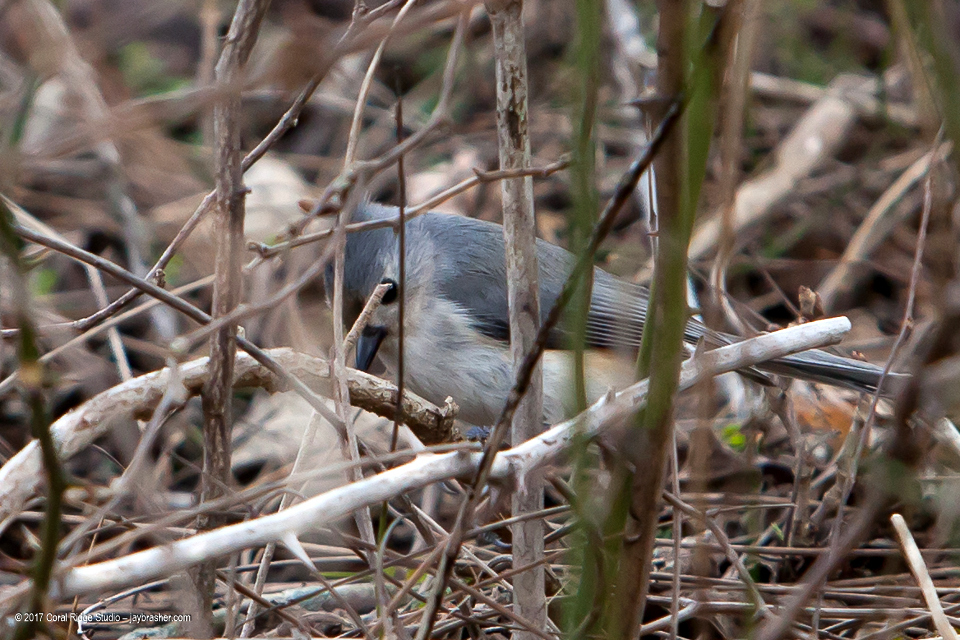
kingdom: Animalia
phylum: Chordata
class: Aves
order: Passeriformes
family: Paridae
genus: Baeolophus
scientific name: Baeolophus bicolor
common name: Tufted titmouse
